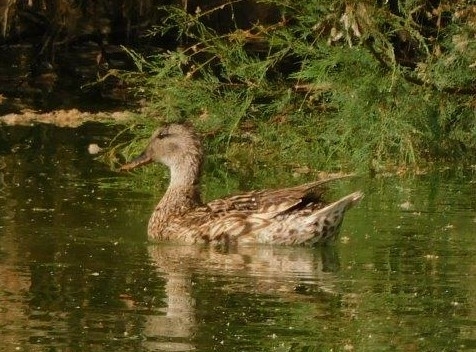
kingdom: Animalia
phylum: Chordata
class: Aves
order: Anseriformes
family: Anatidae
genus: Mareca
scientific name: Mareca strepera
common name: Gadwall
